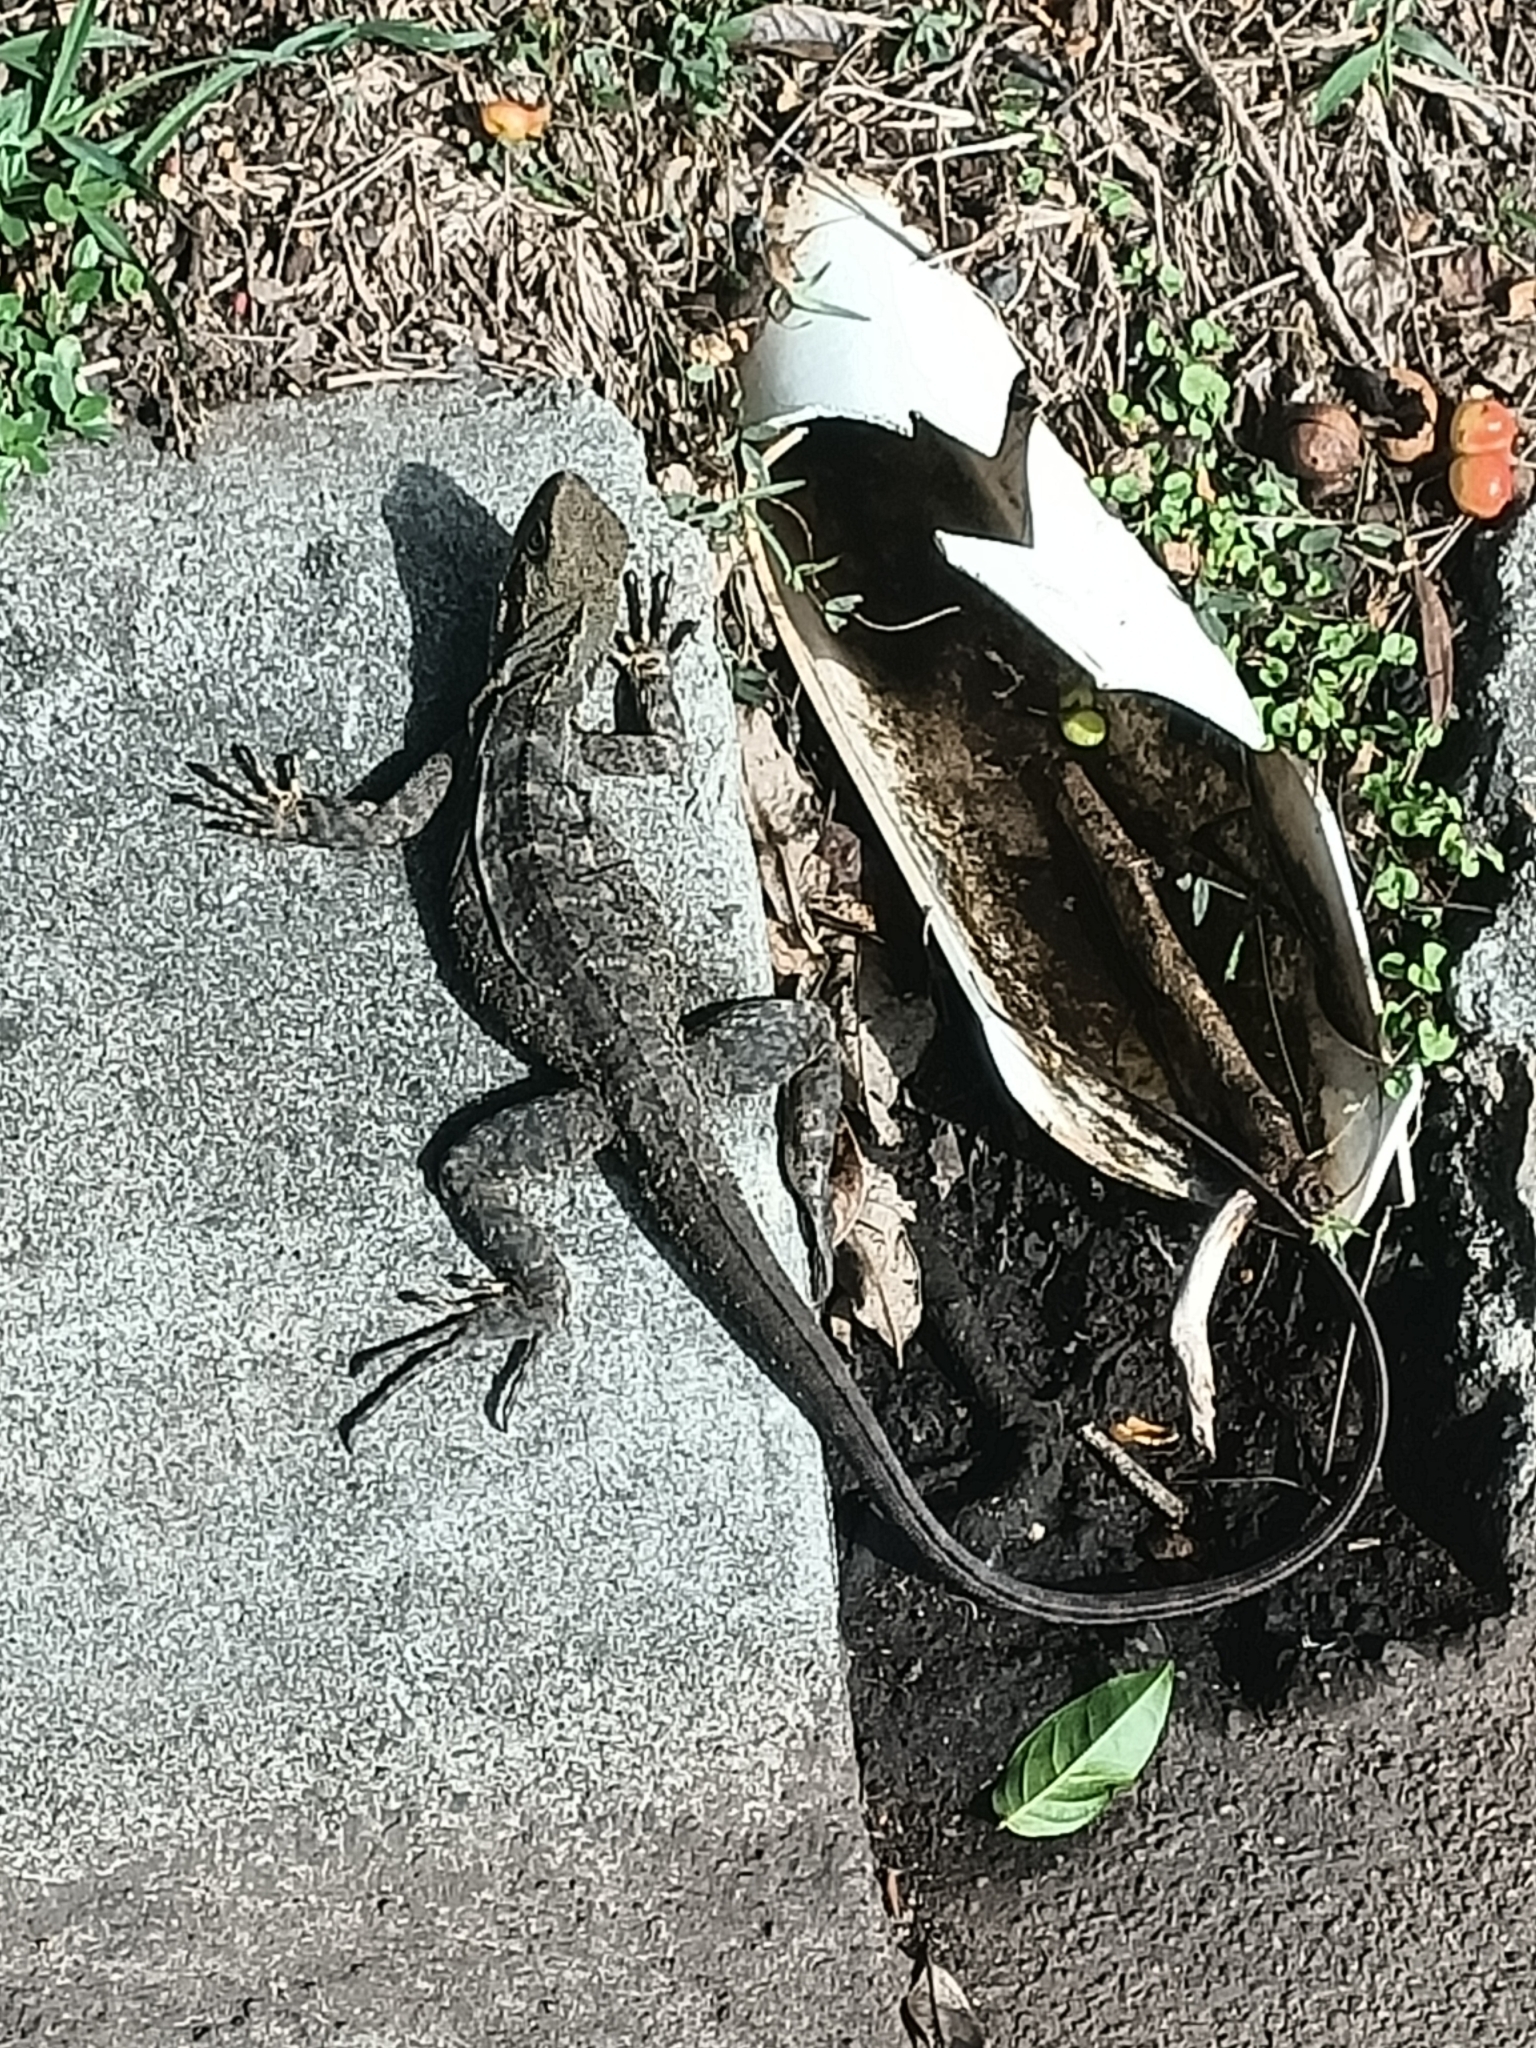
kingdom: Animalia
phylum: Chordata
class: Squamata
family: Agamidae
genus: Intellagama
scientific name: Intellagama lesueurii
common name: Eastern water dragon
